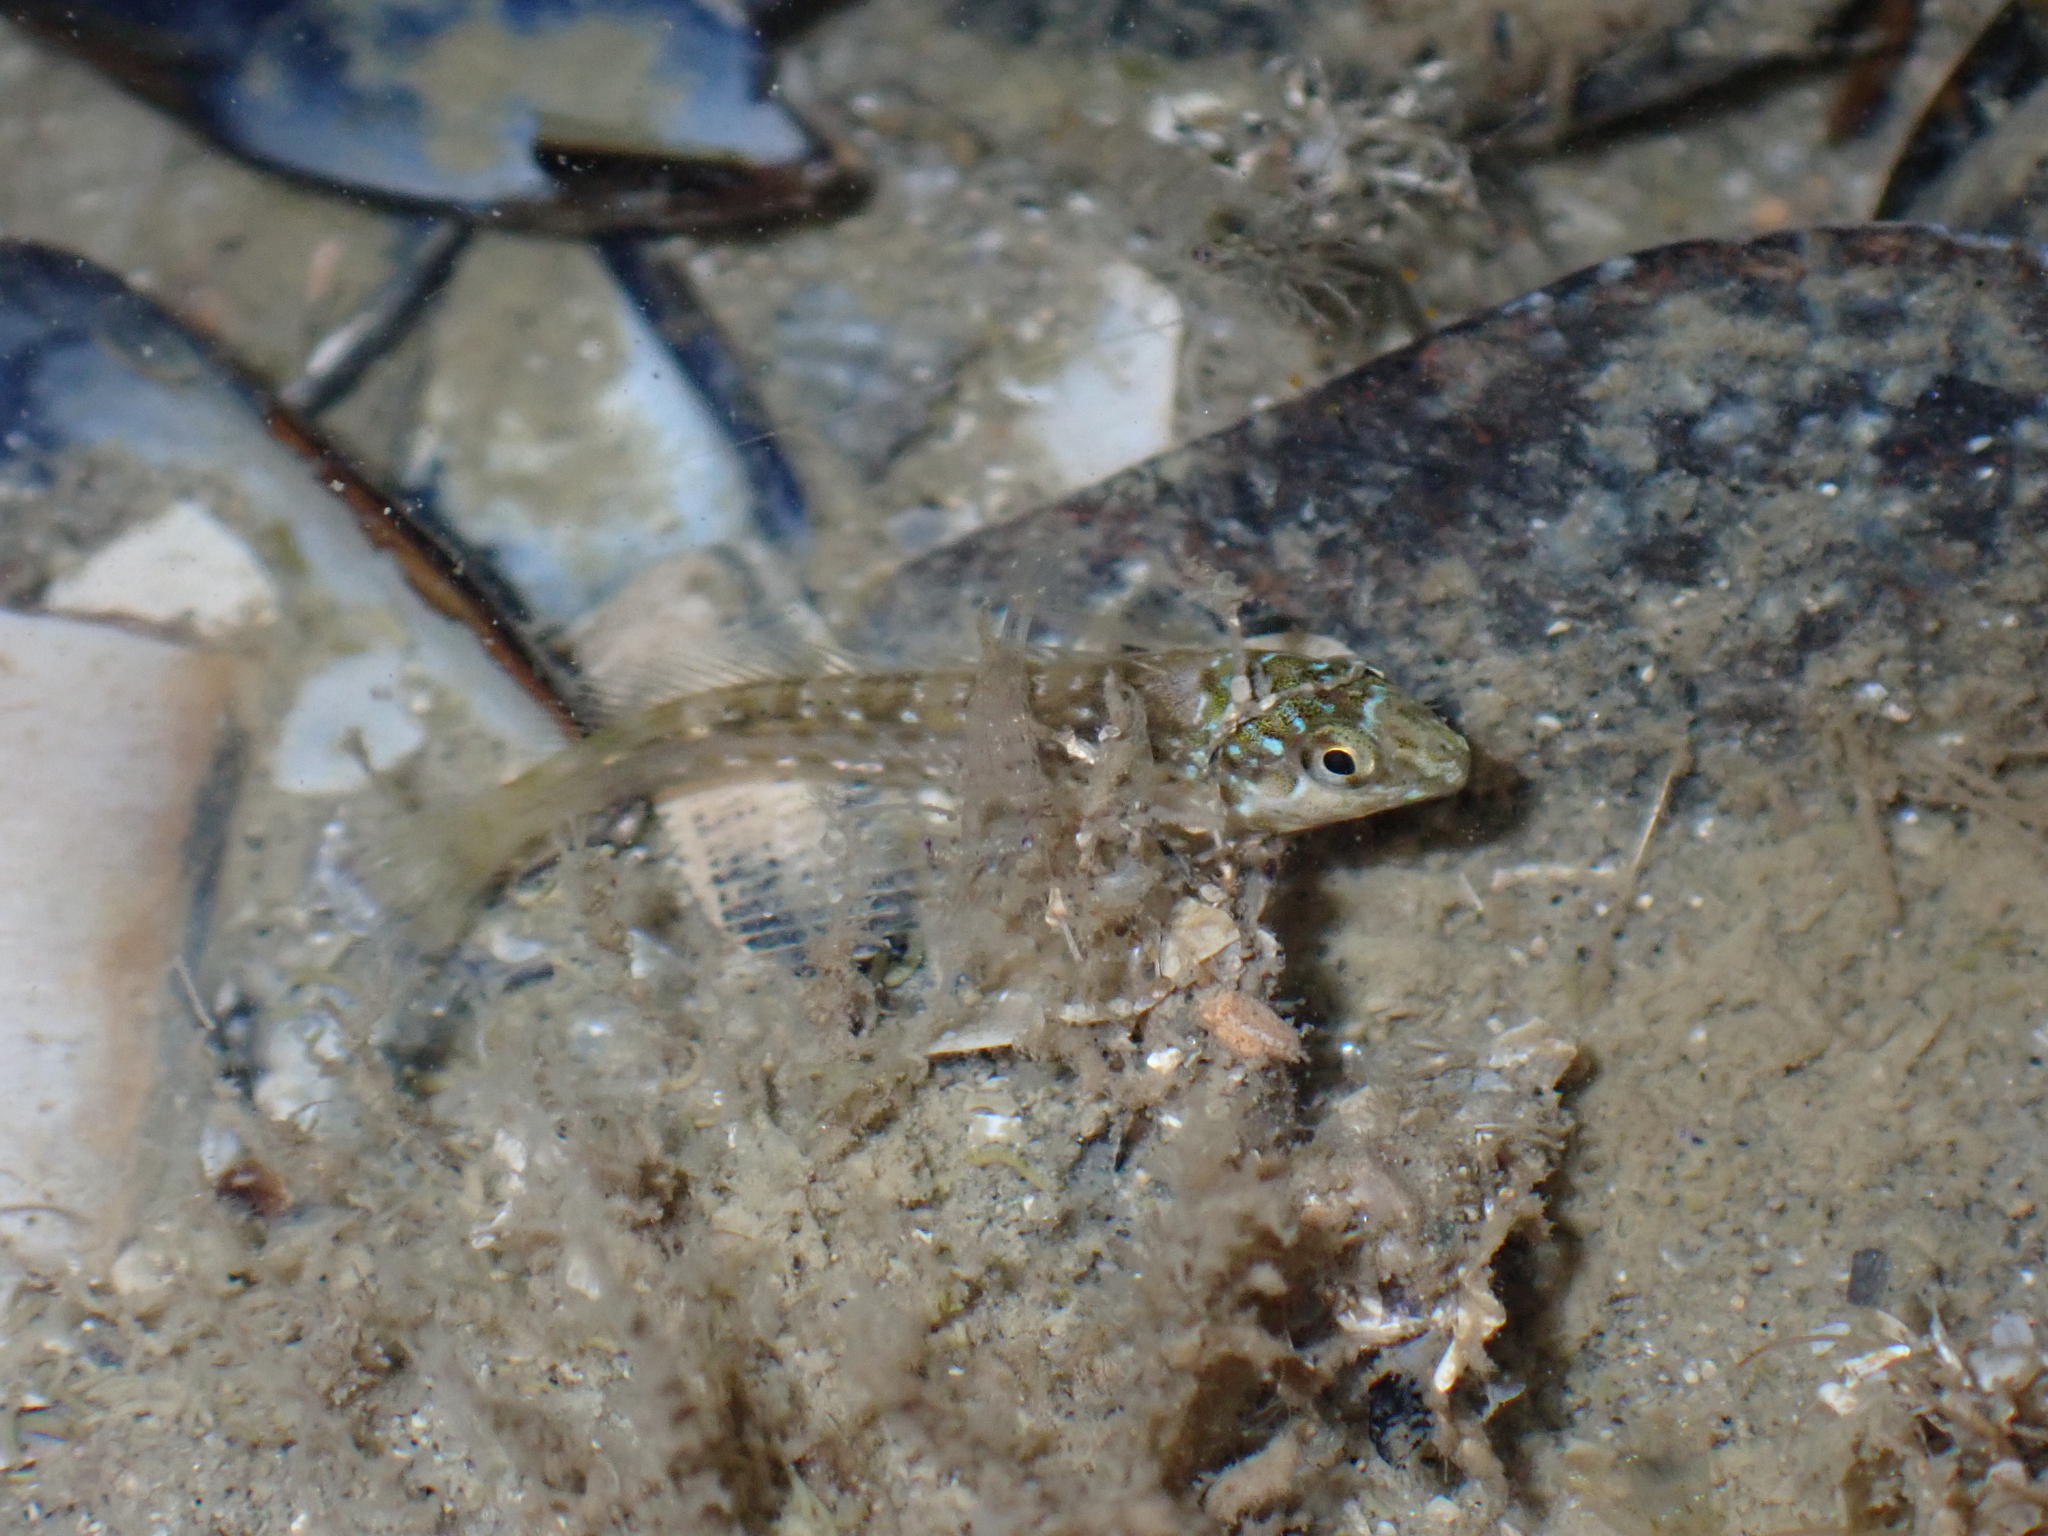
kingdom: Animalia
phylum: Chordata
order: Perciformes
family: Blenniidae
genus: Lipophrys
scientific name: Lipophrys pholis
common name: Shanny
